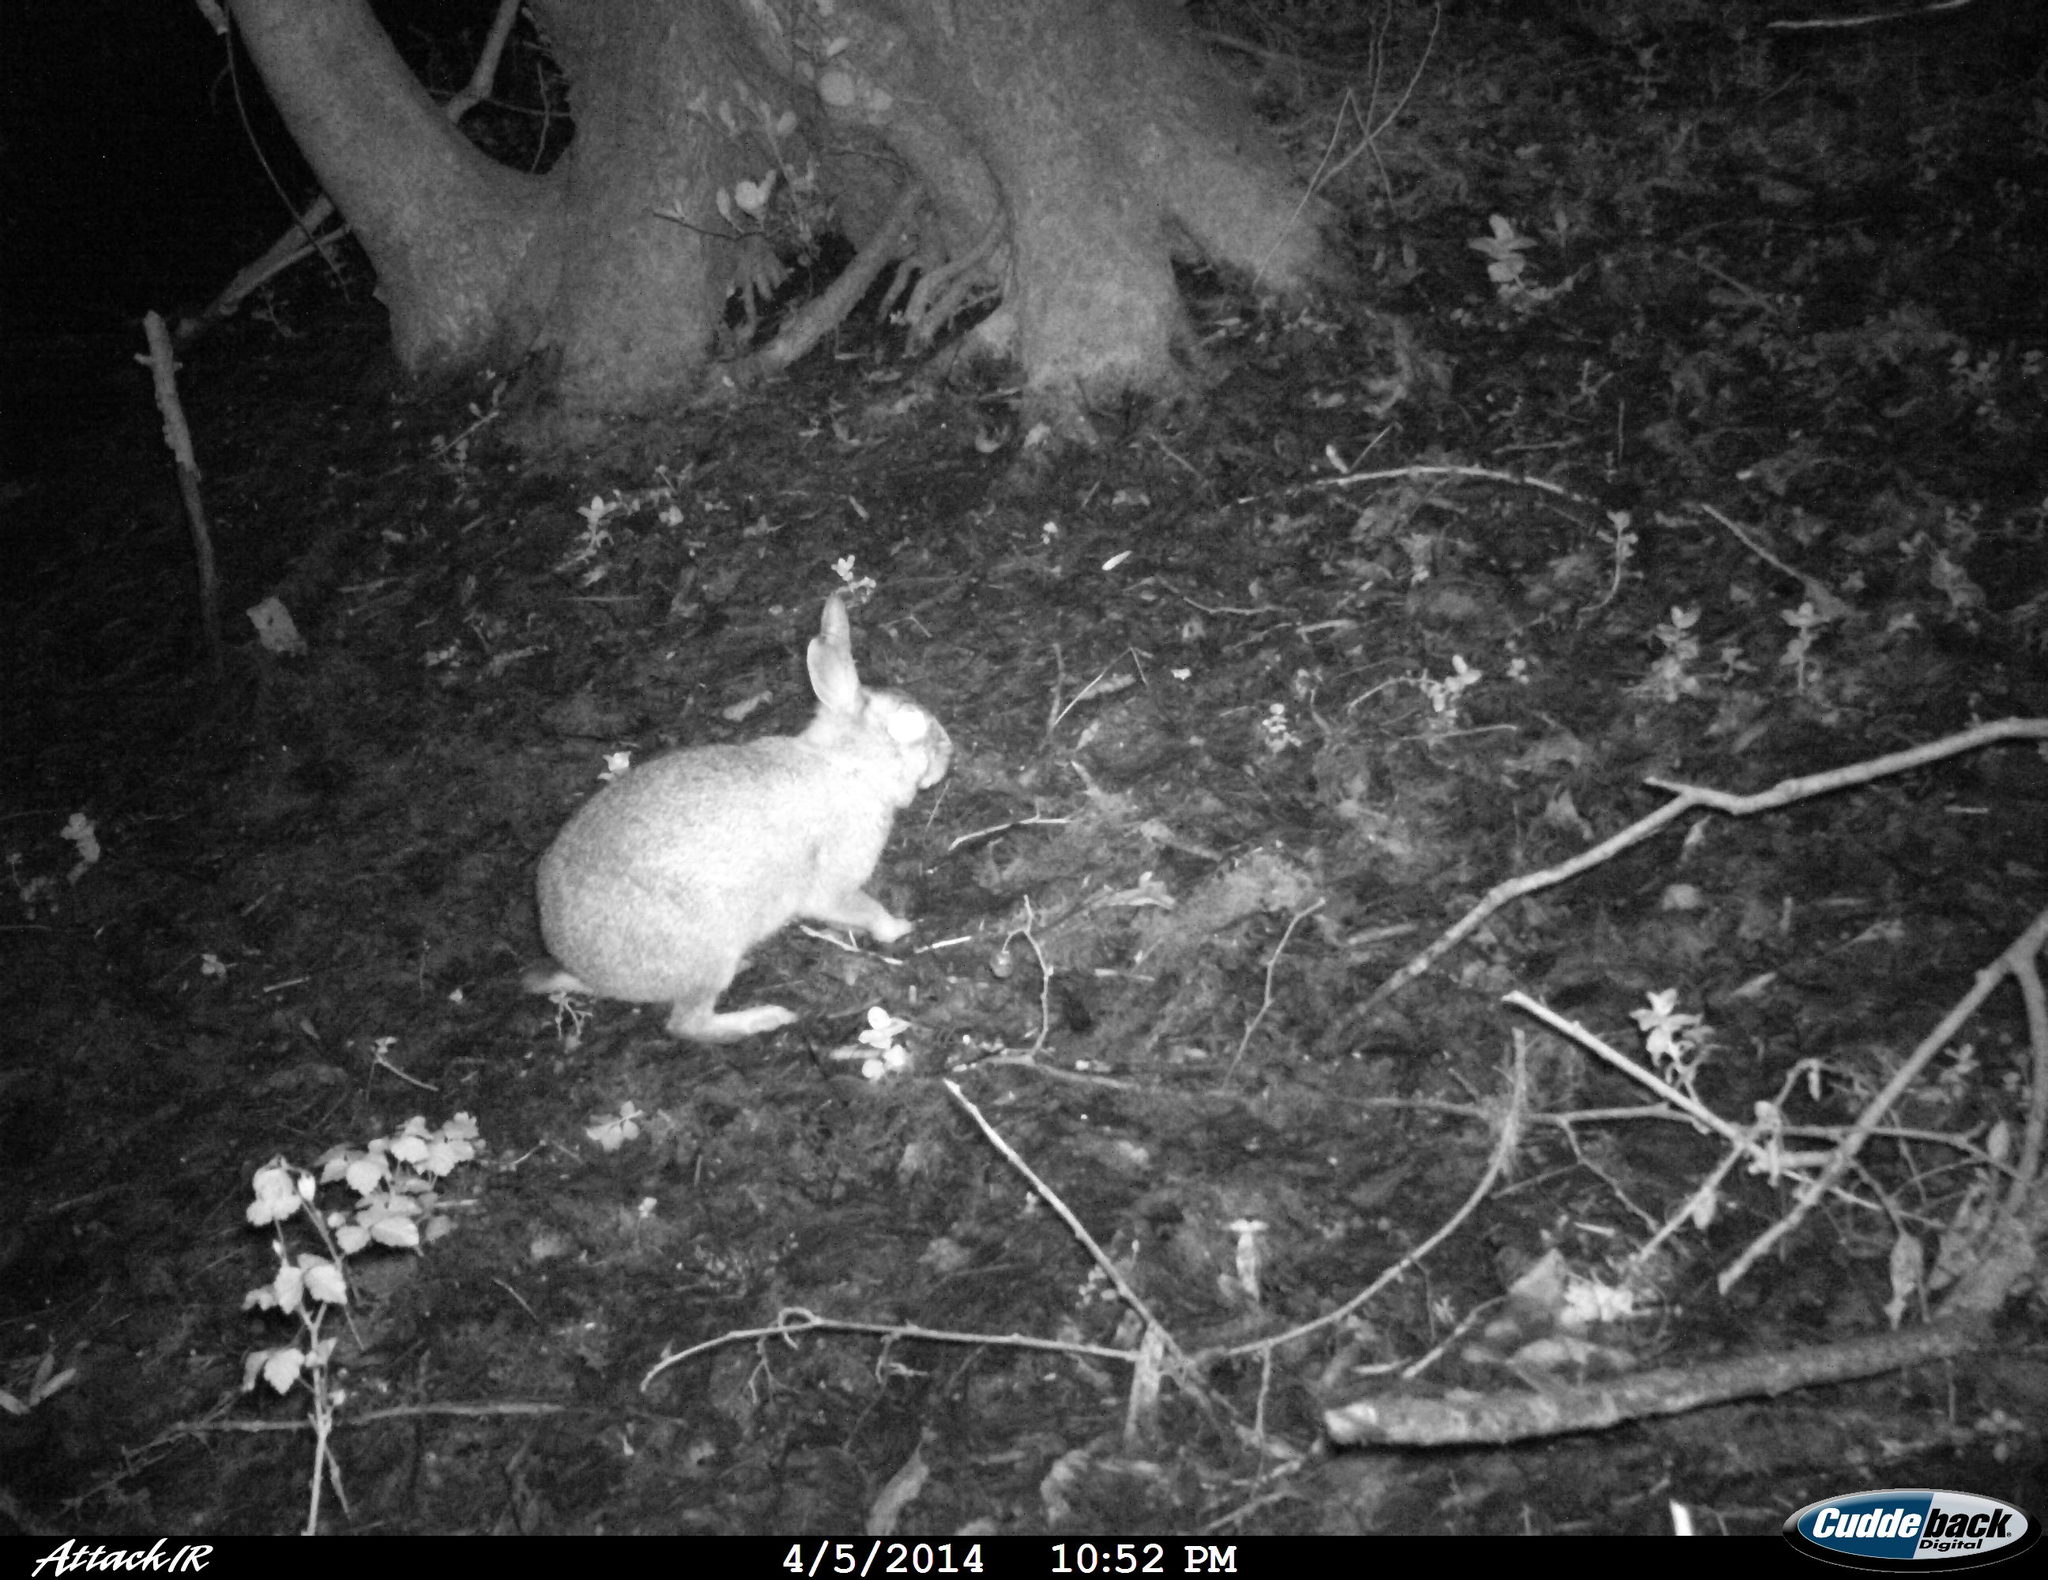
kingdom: Animalia
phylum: Chordata
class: Mammalia
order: Lagomorpha
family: Leporidae
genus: Oryctolagus
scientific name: Oryctolagus cuniculus
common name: European rabbit
